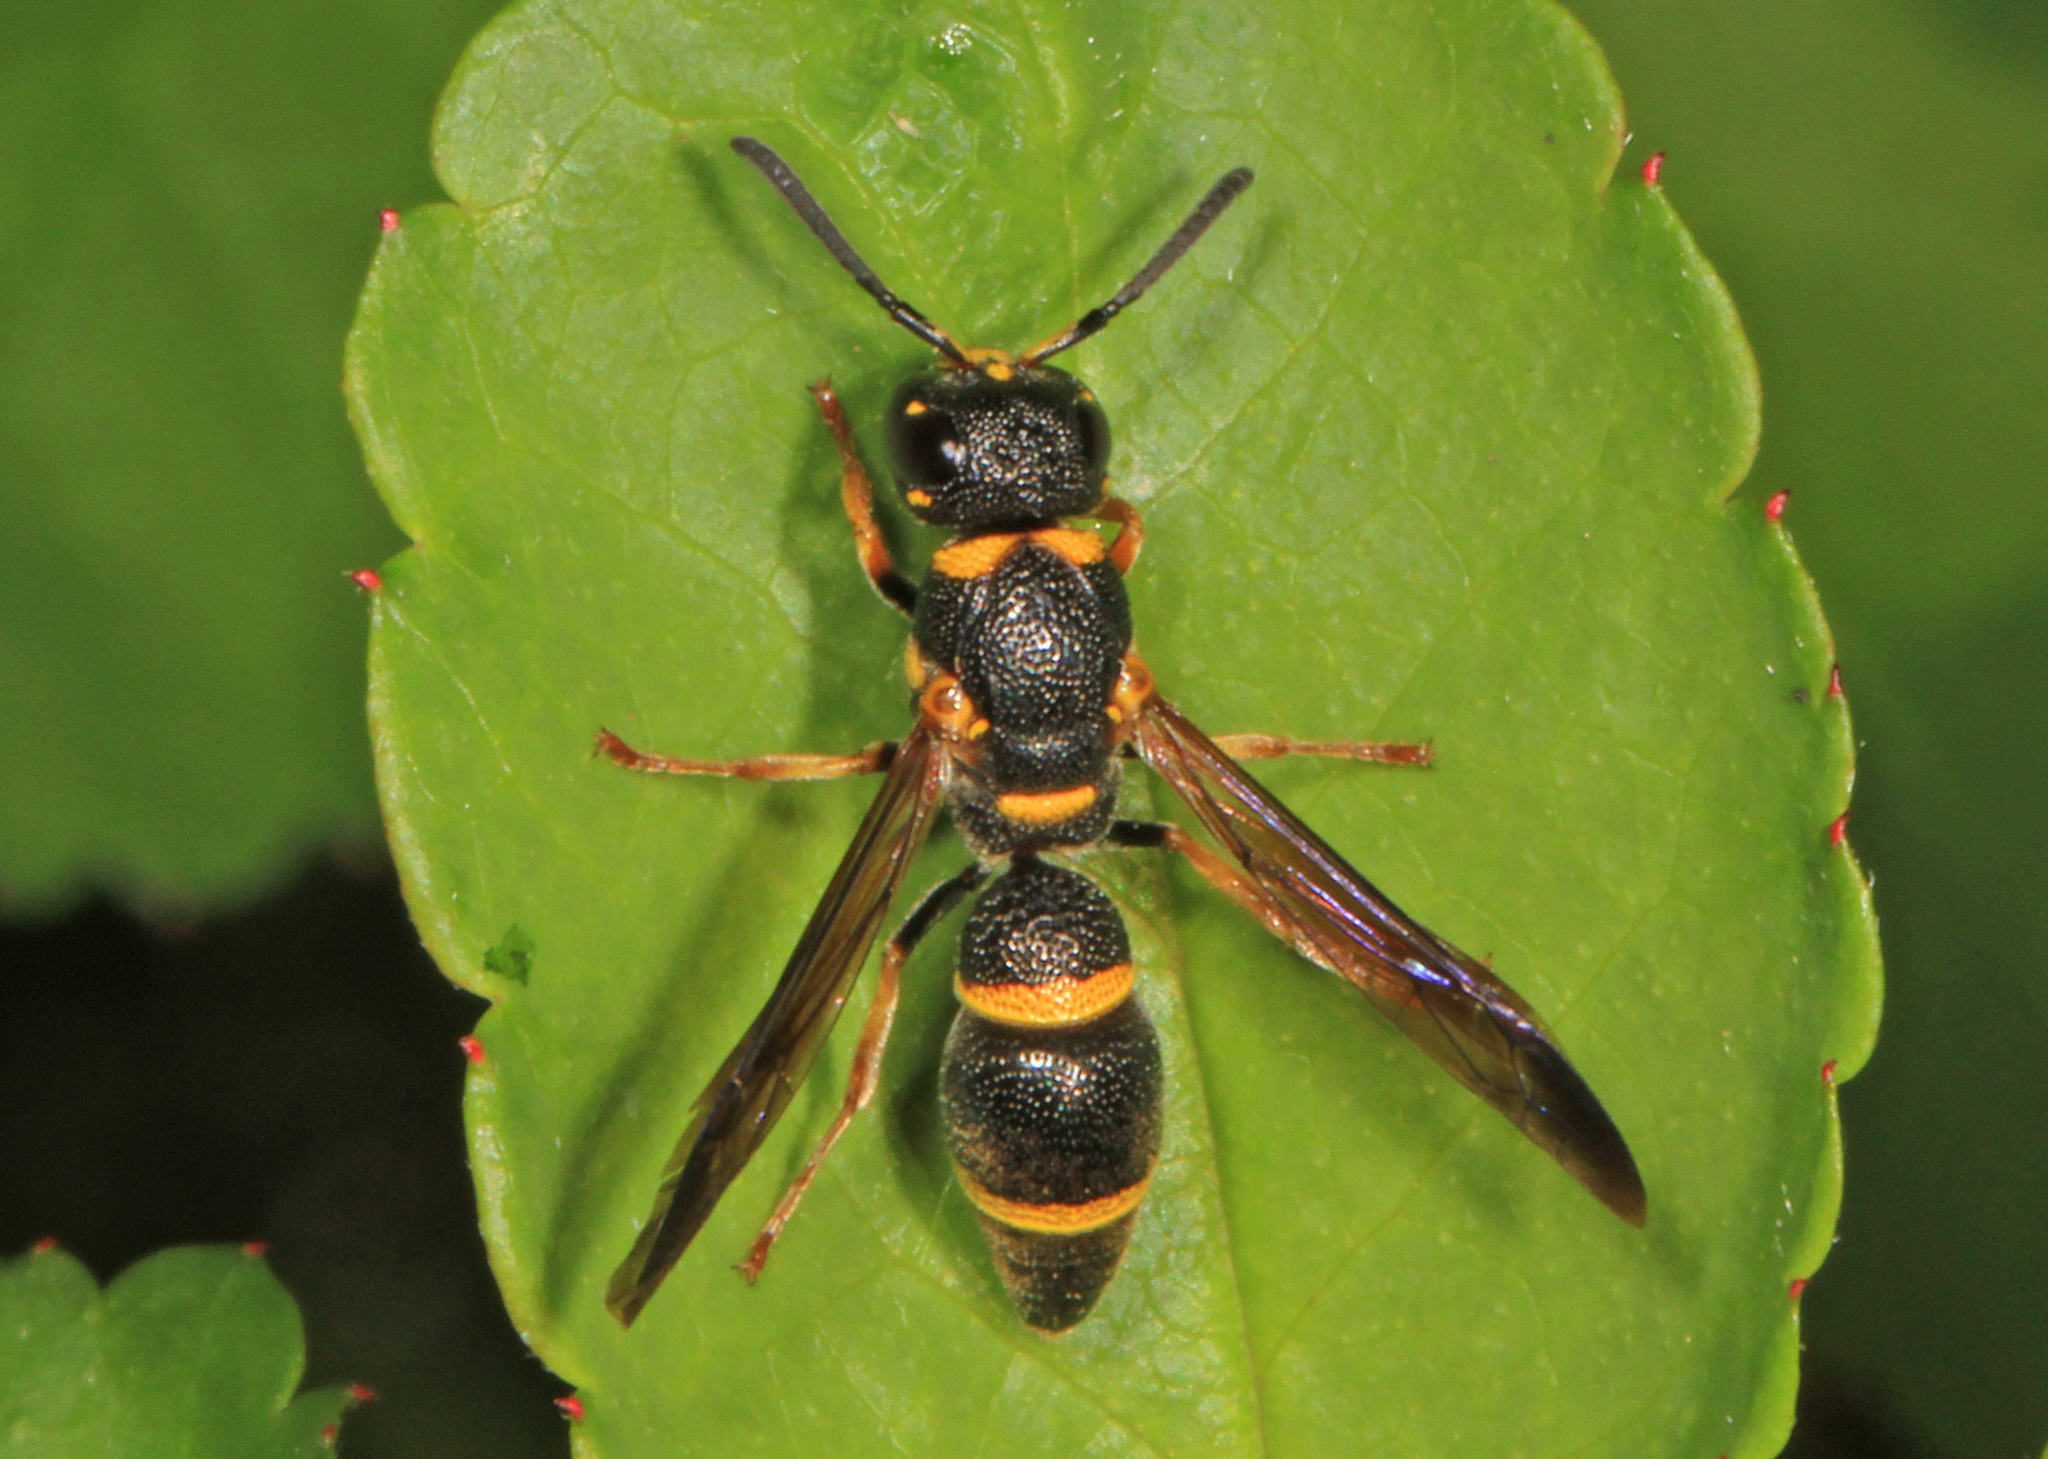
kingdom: Animalia
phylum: Arthropoda
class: Insecta
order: Hymenoptera
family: Eumenidae
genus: Parancistrocerus
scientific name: Parancistrocerus perennis
